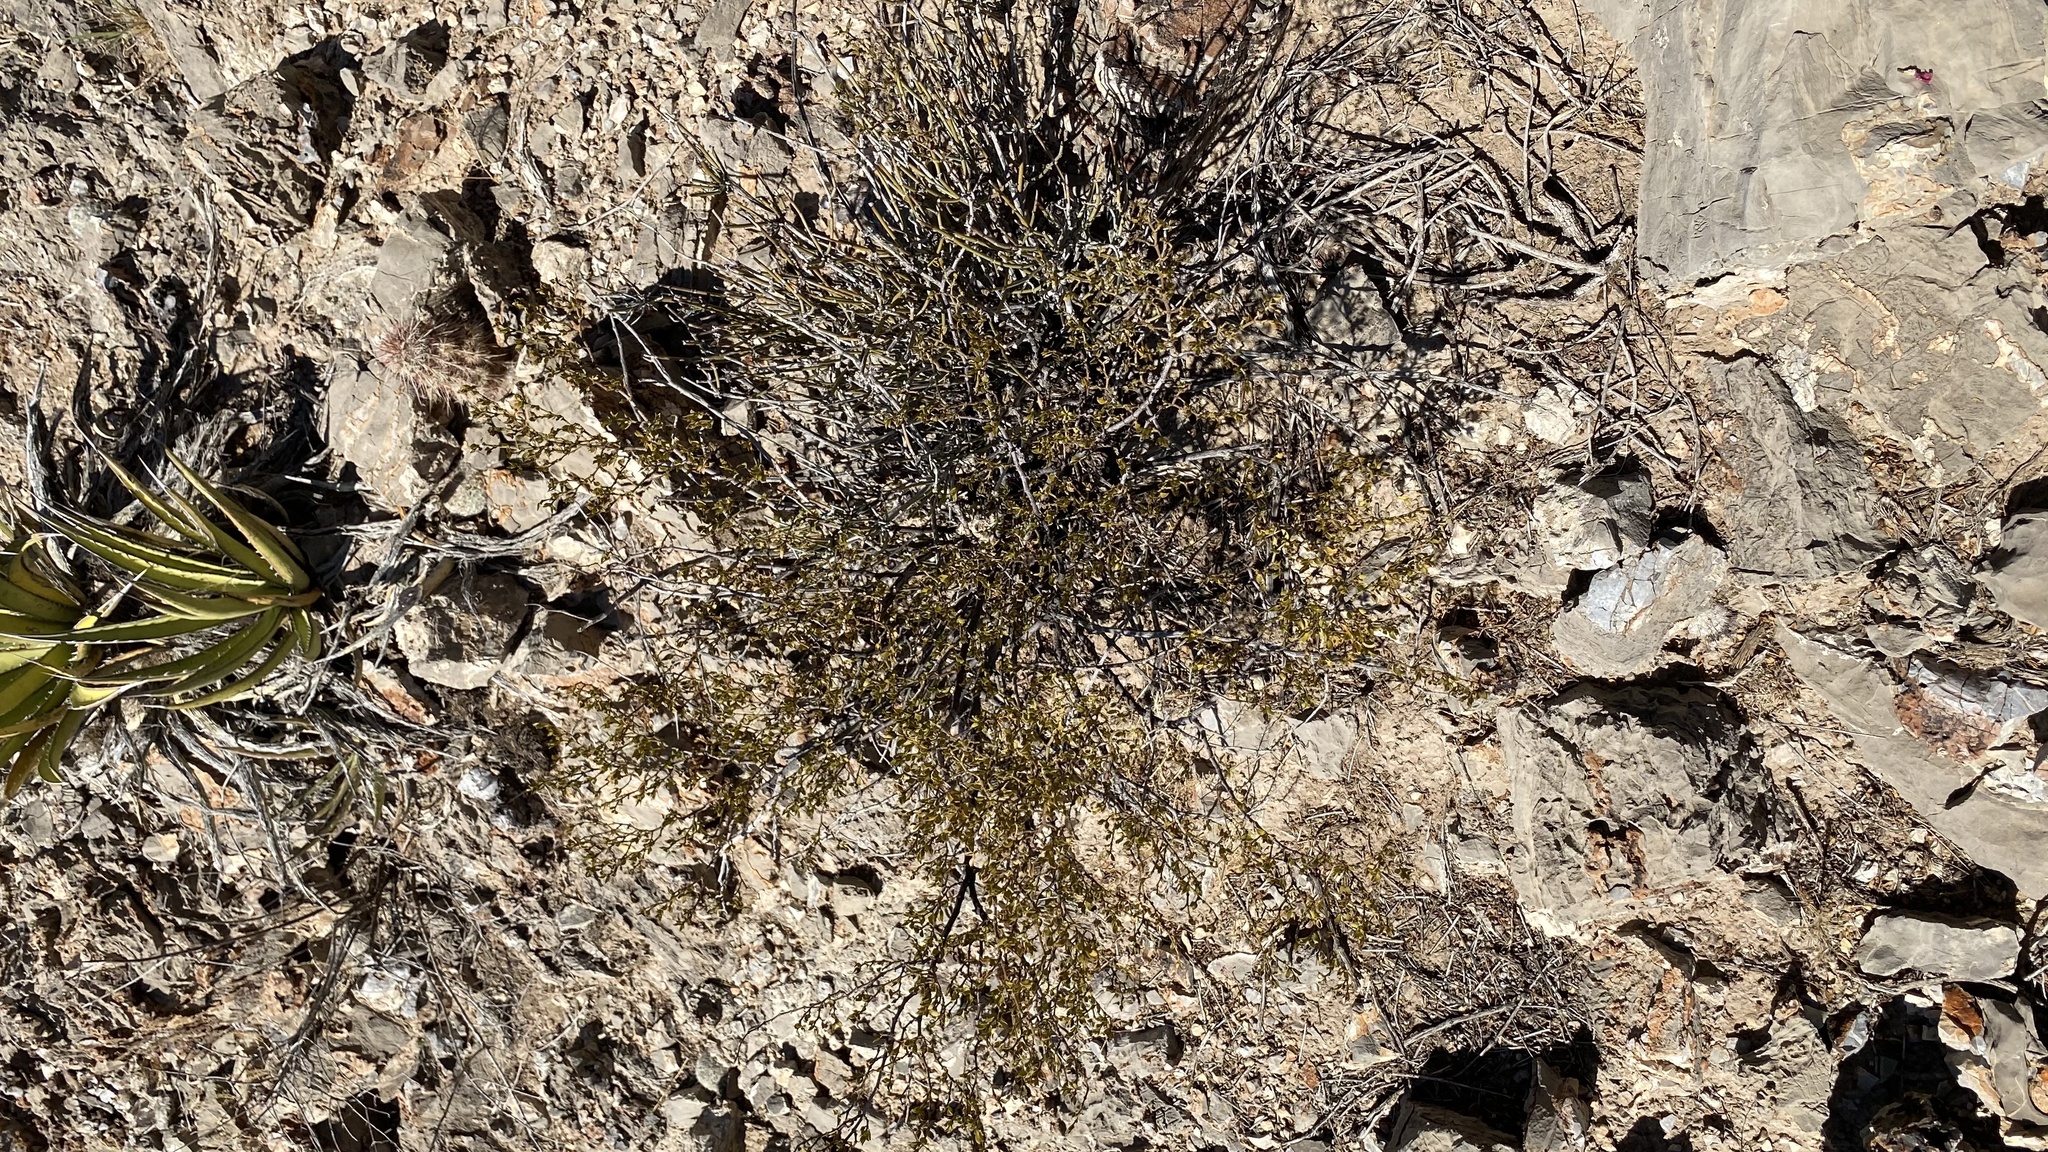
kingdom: Plantae
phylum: Tracheophyta
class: Magnoliopsida
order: Zygophyllales
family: Zygophyllaceae
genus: Larrea
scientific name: Larrea tridentata
